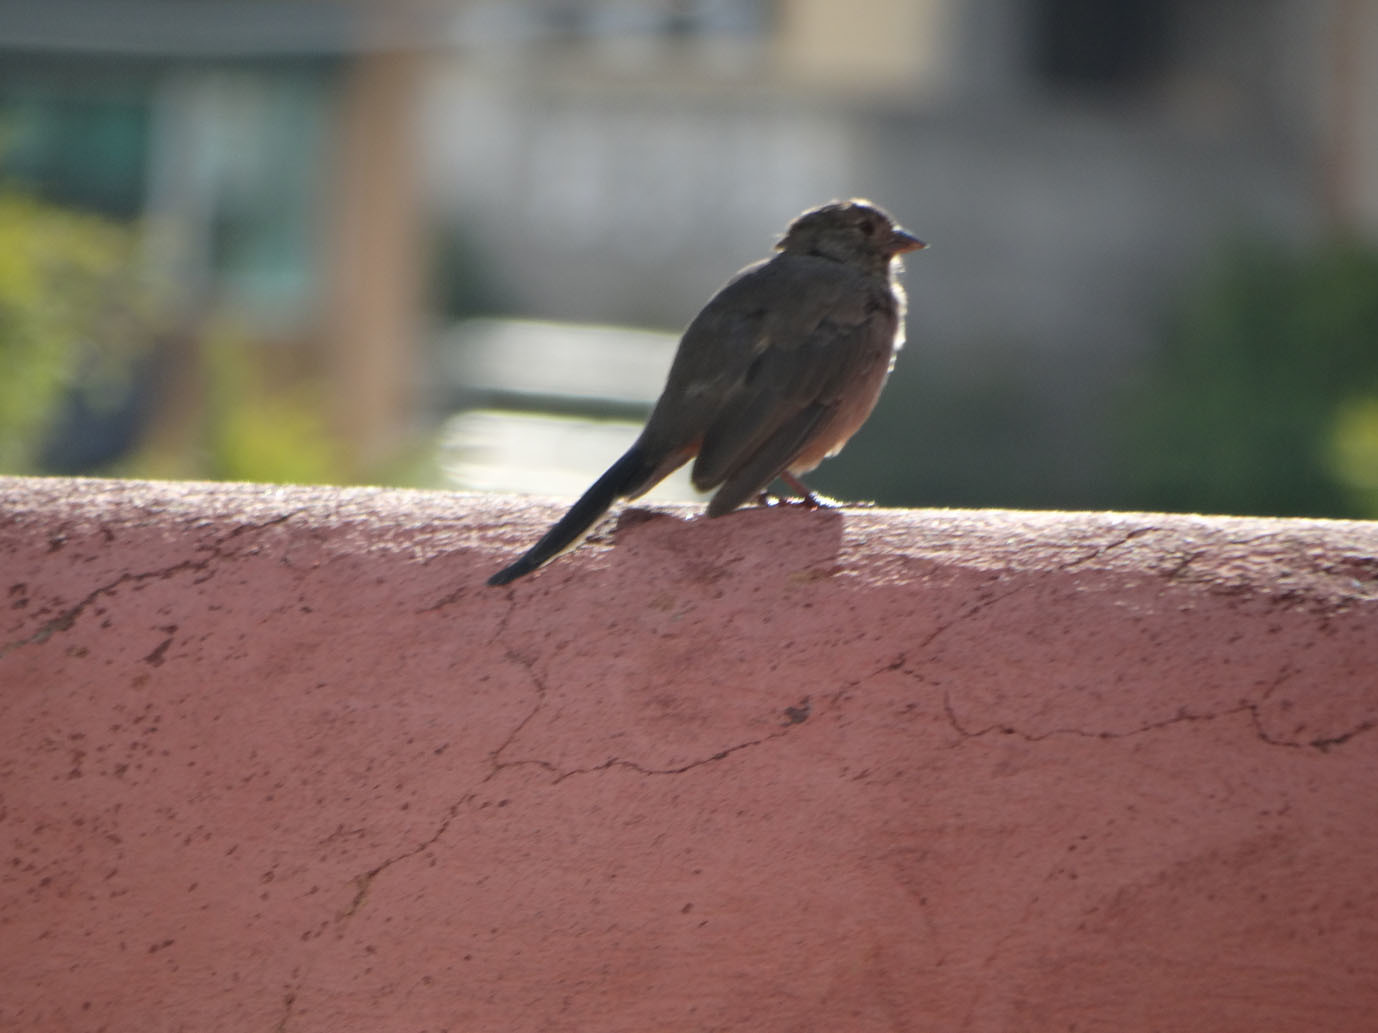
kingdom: Animalia
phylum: Chordata
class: Aves
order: Passeriformes
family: Passerellidae
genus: Melozone
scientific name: Melozone fusca
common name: Canyon towhee
